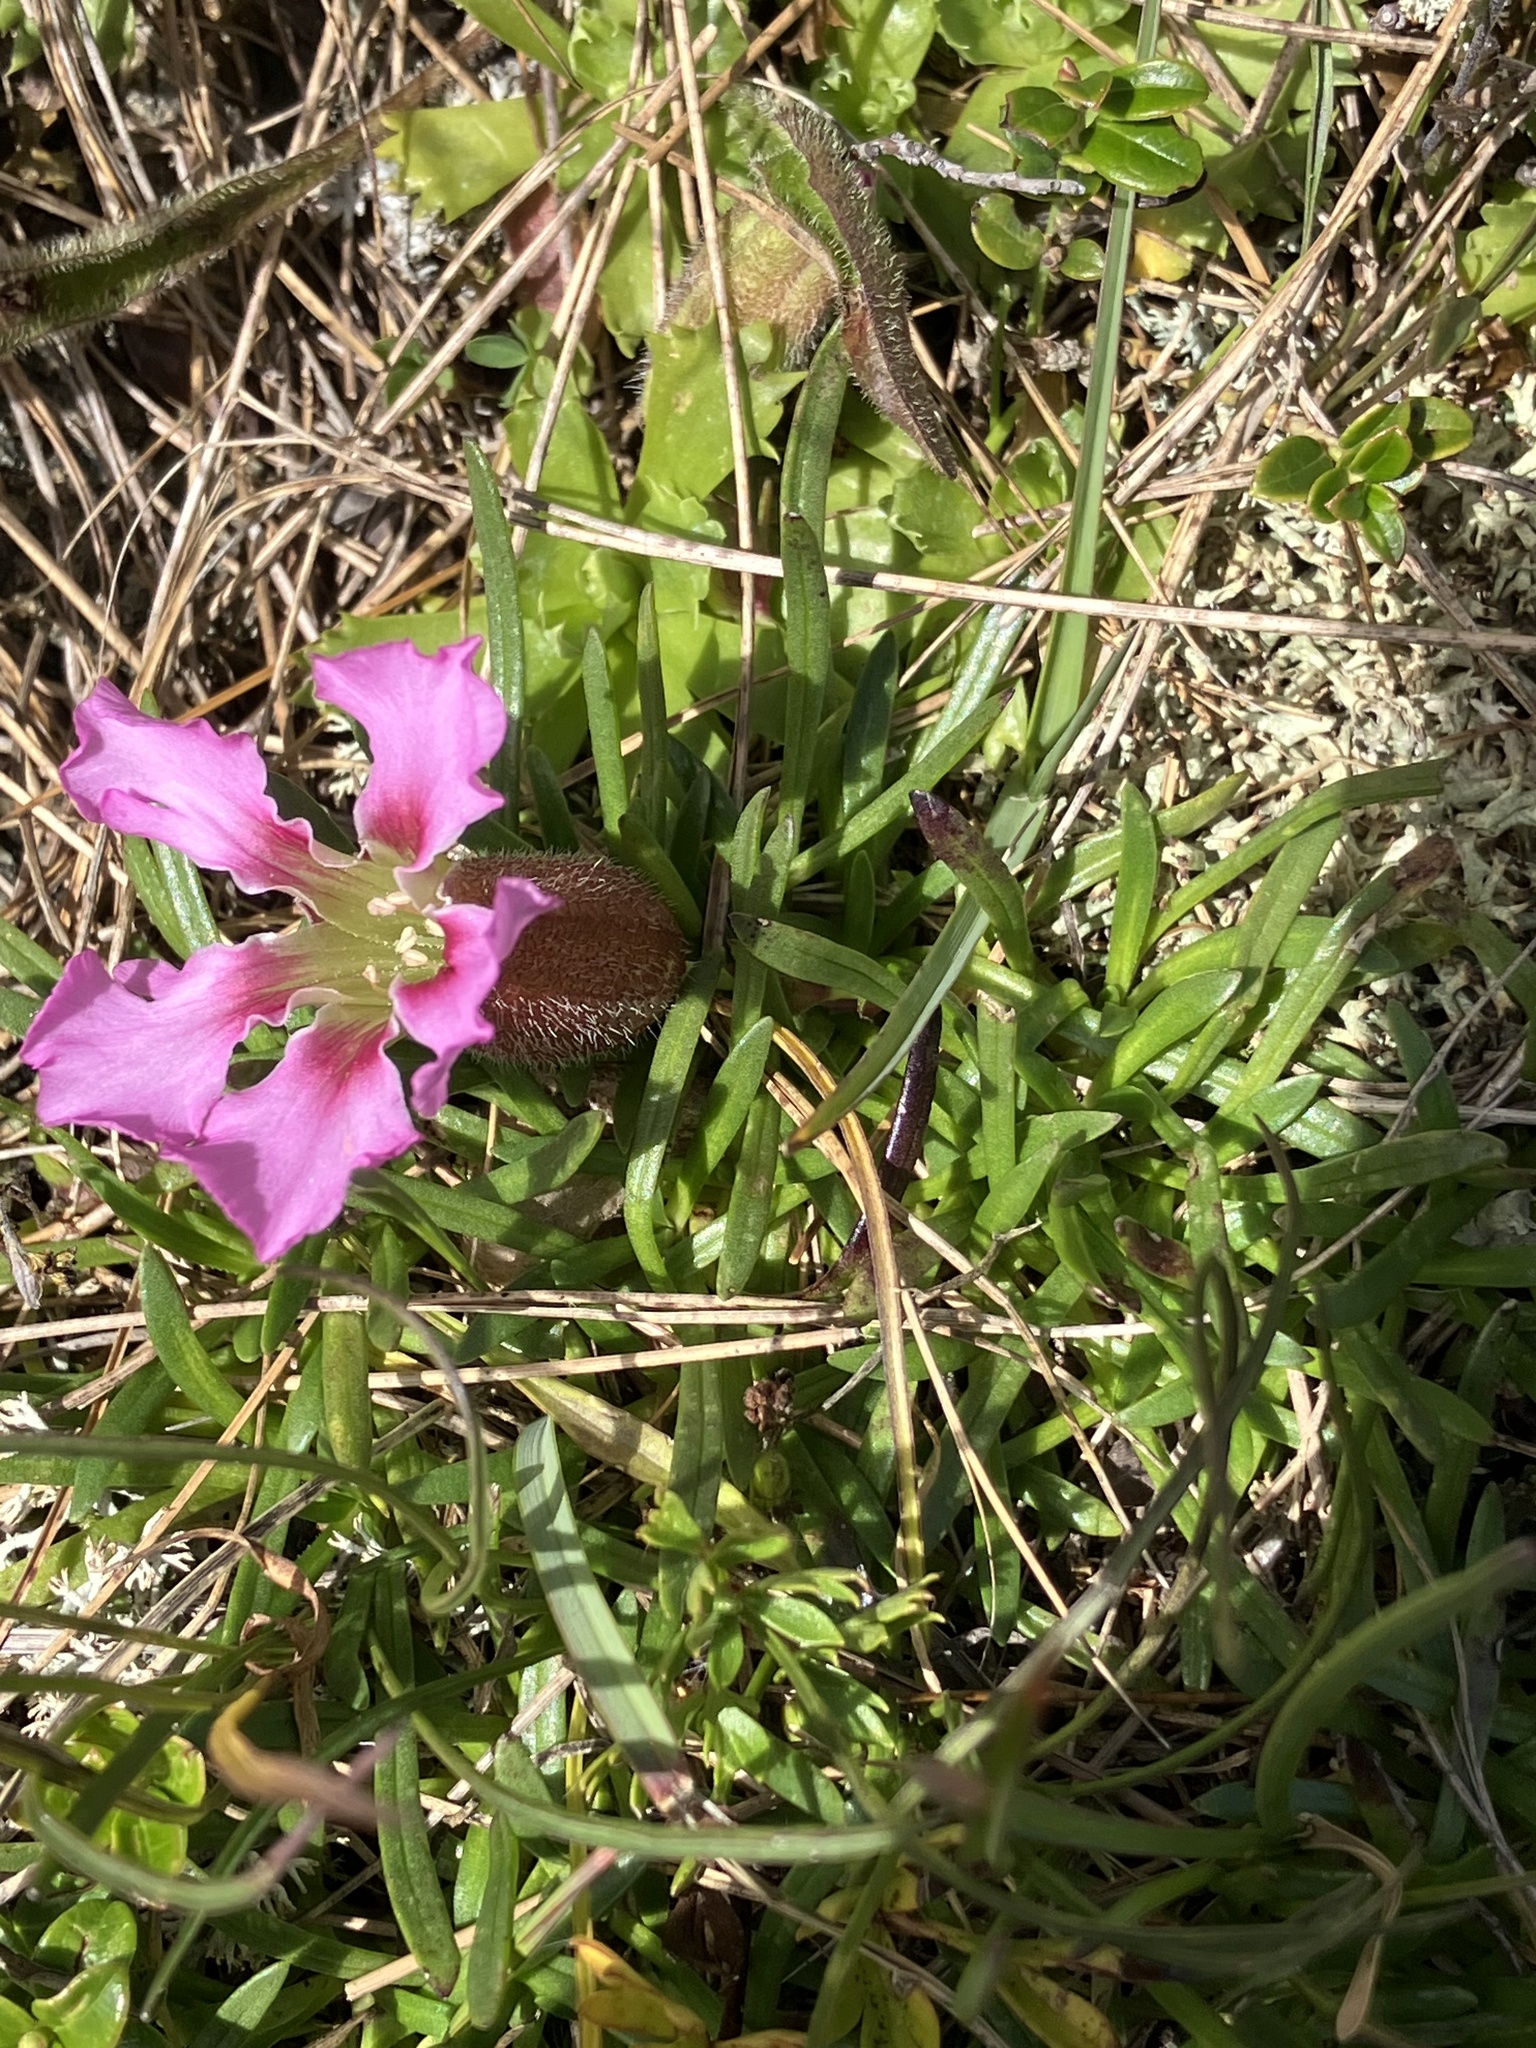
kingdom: Plantae
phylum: Tracheophyta
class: Magnoliopsida
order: Caryophyllales
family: Caryophyllaceae
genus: Saponaria
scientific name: Saponaria pumila
